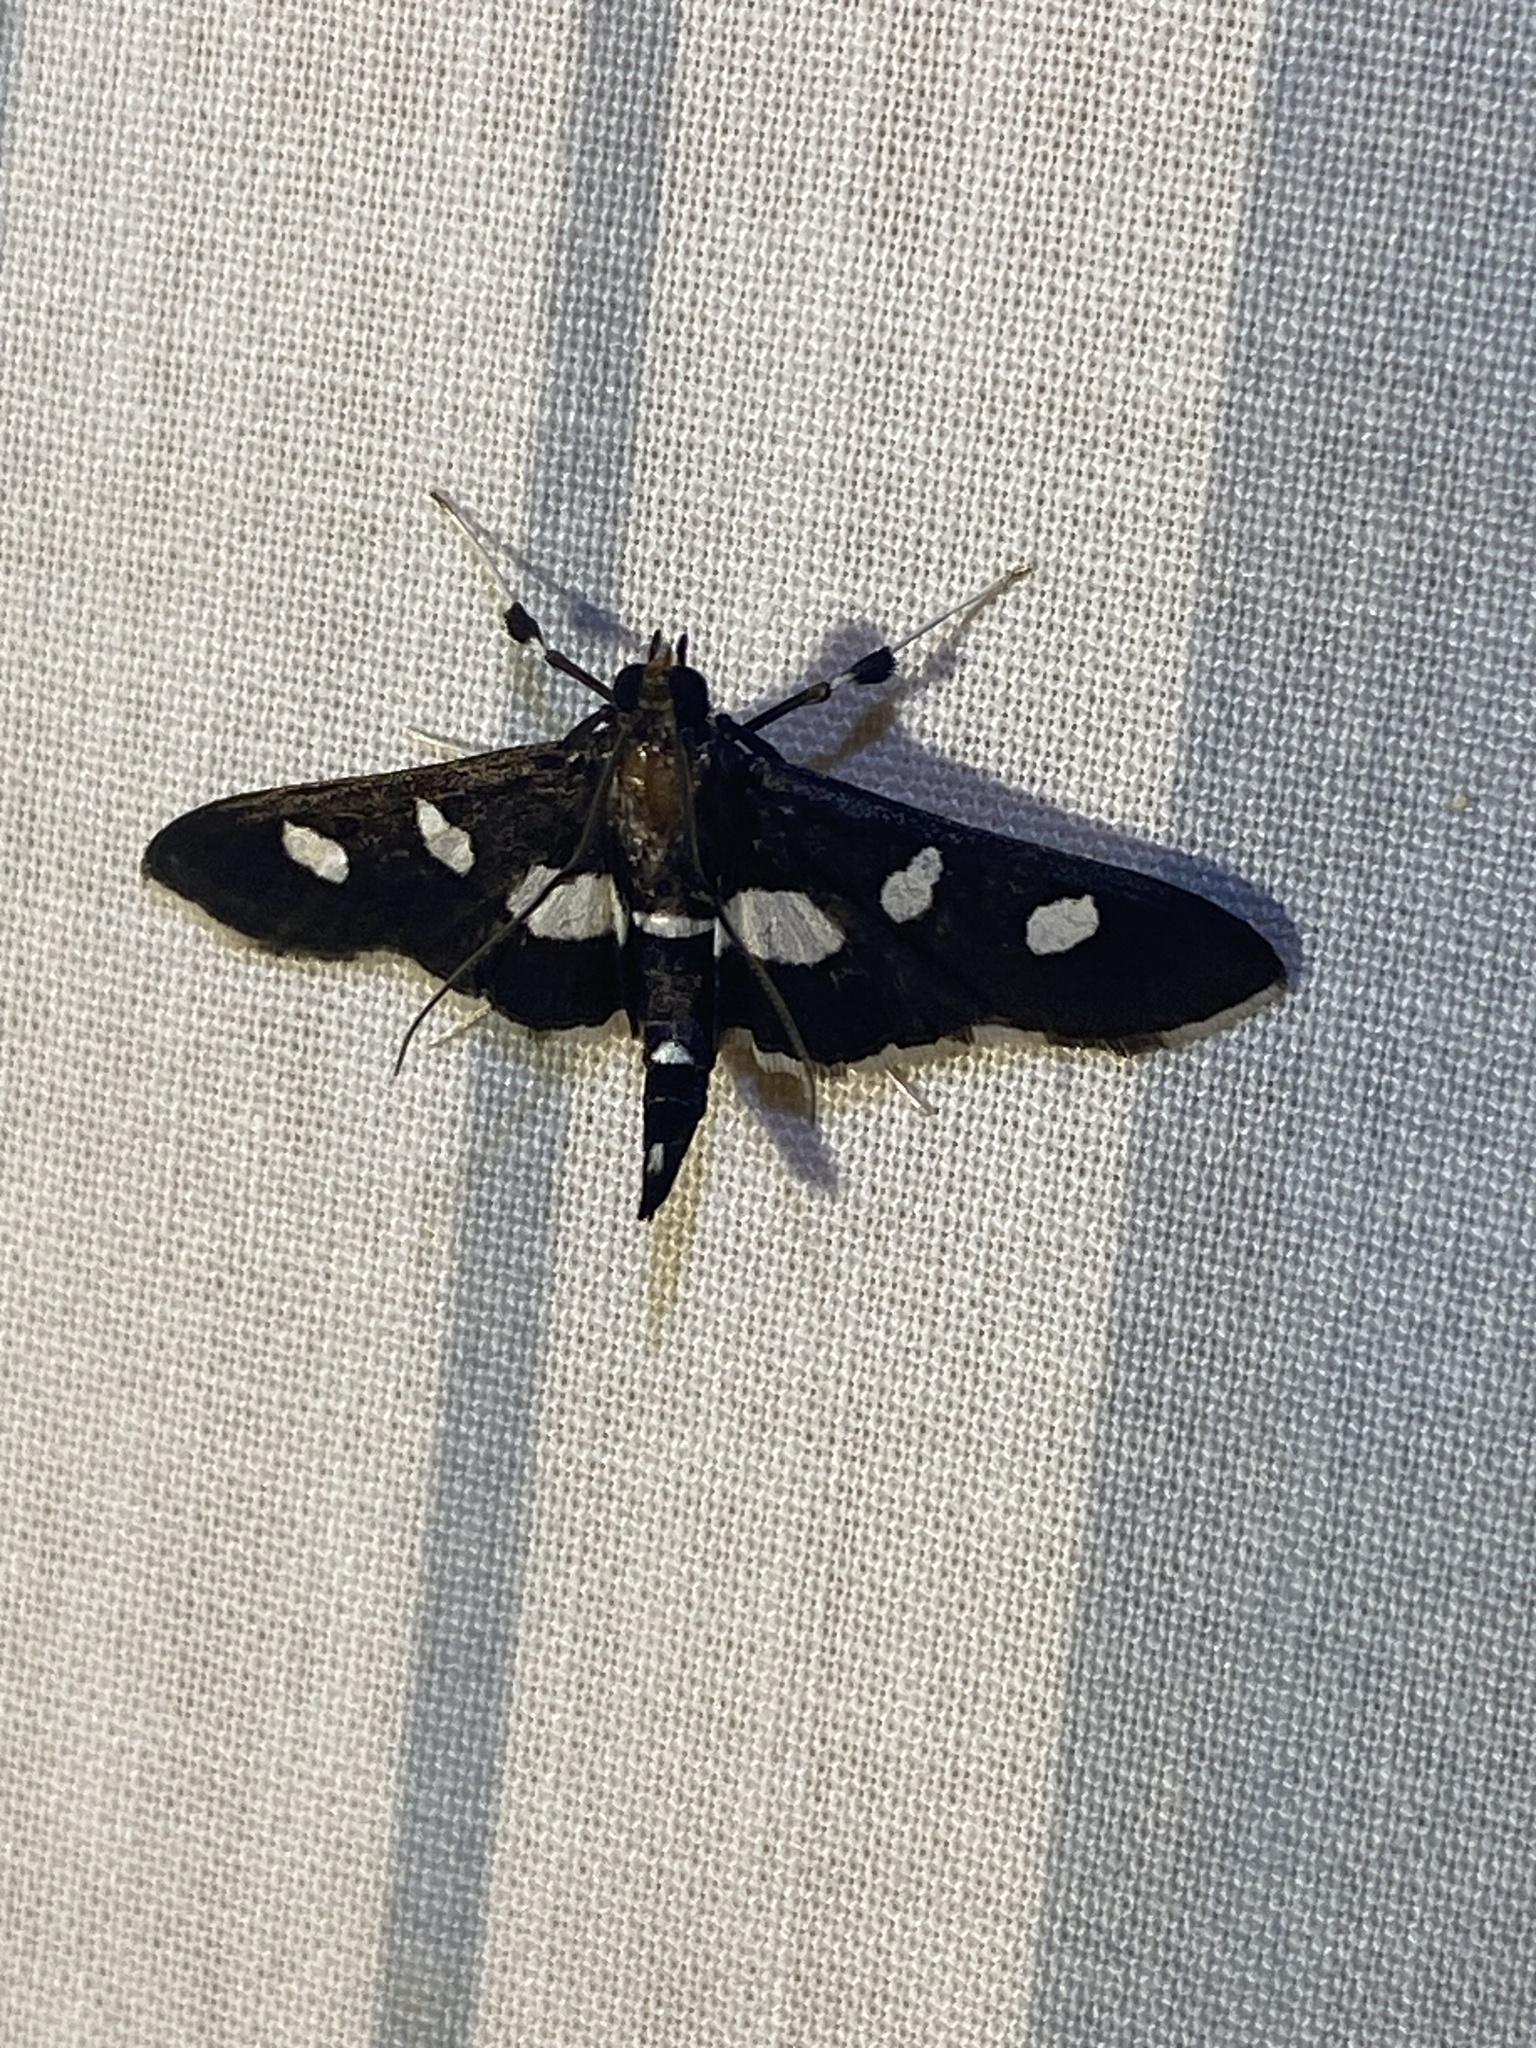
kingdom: Animalia
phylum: Arthropoda
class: Insecta
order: Lepidoptera
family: Crambidae
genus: Desmia
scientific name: Desmia
